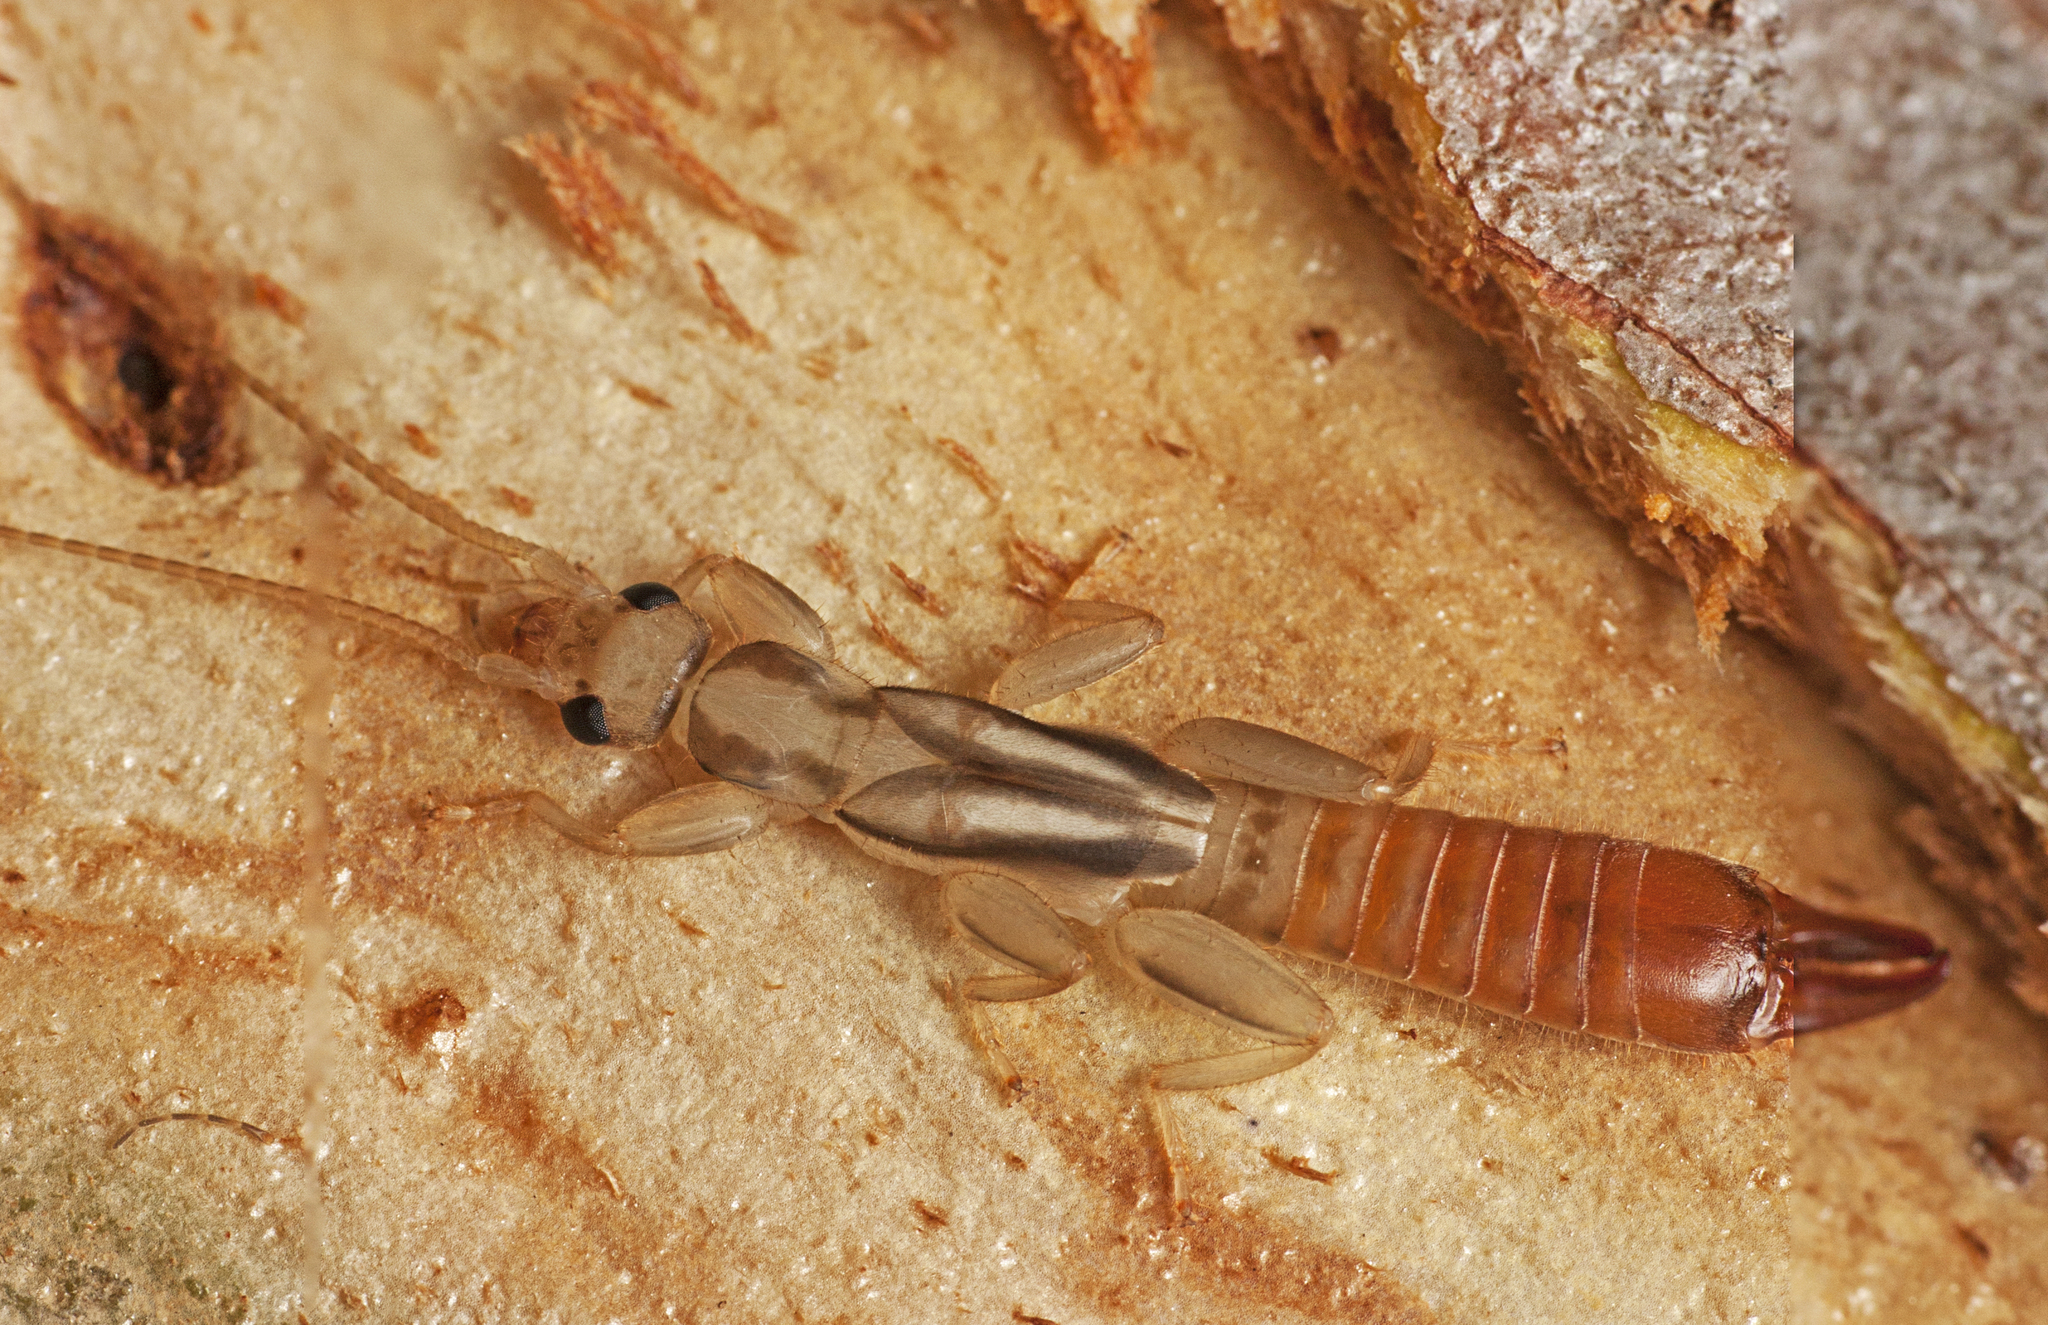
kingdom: Animalia
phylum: Arthropoda
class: Insecta
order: Dermaptera
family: Pygidicranidae
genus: Dacnodes
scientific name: Dacnodes hackeri
